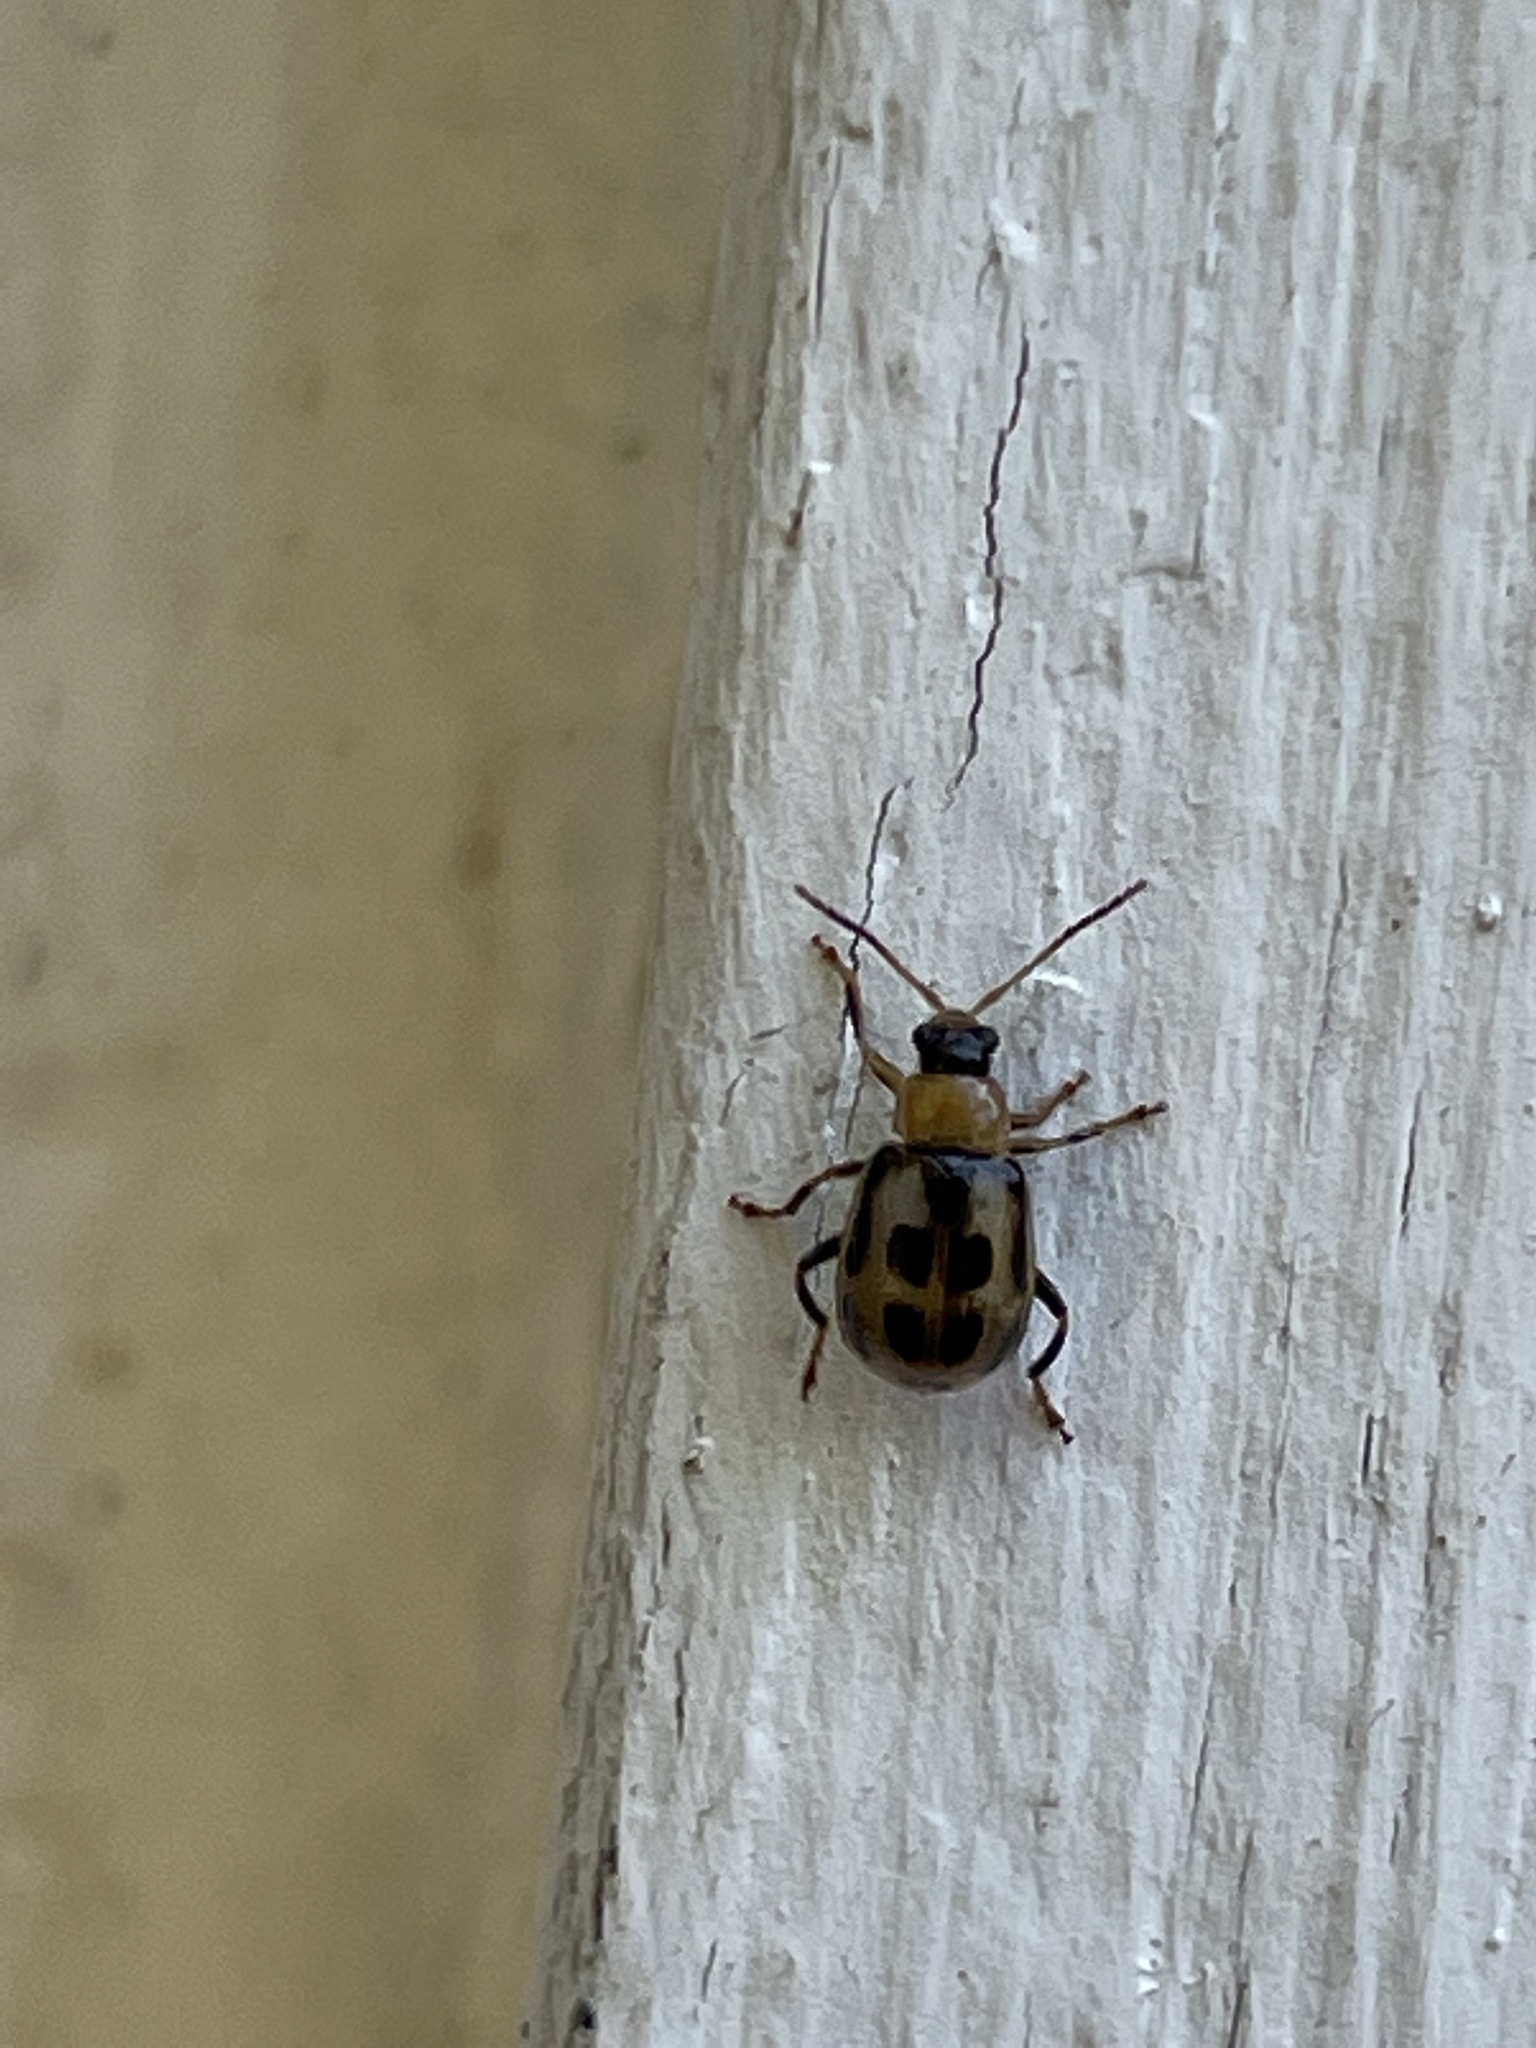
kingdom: Animalia
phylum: Arthropoda
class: Insecta
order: Coleoptera
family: Chrysomelidae
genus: Cerotoma
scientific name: Cerotoma trifurcata
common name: Bean leaf beetle
